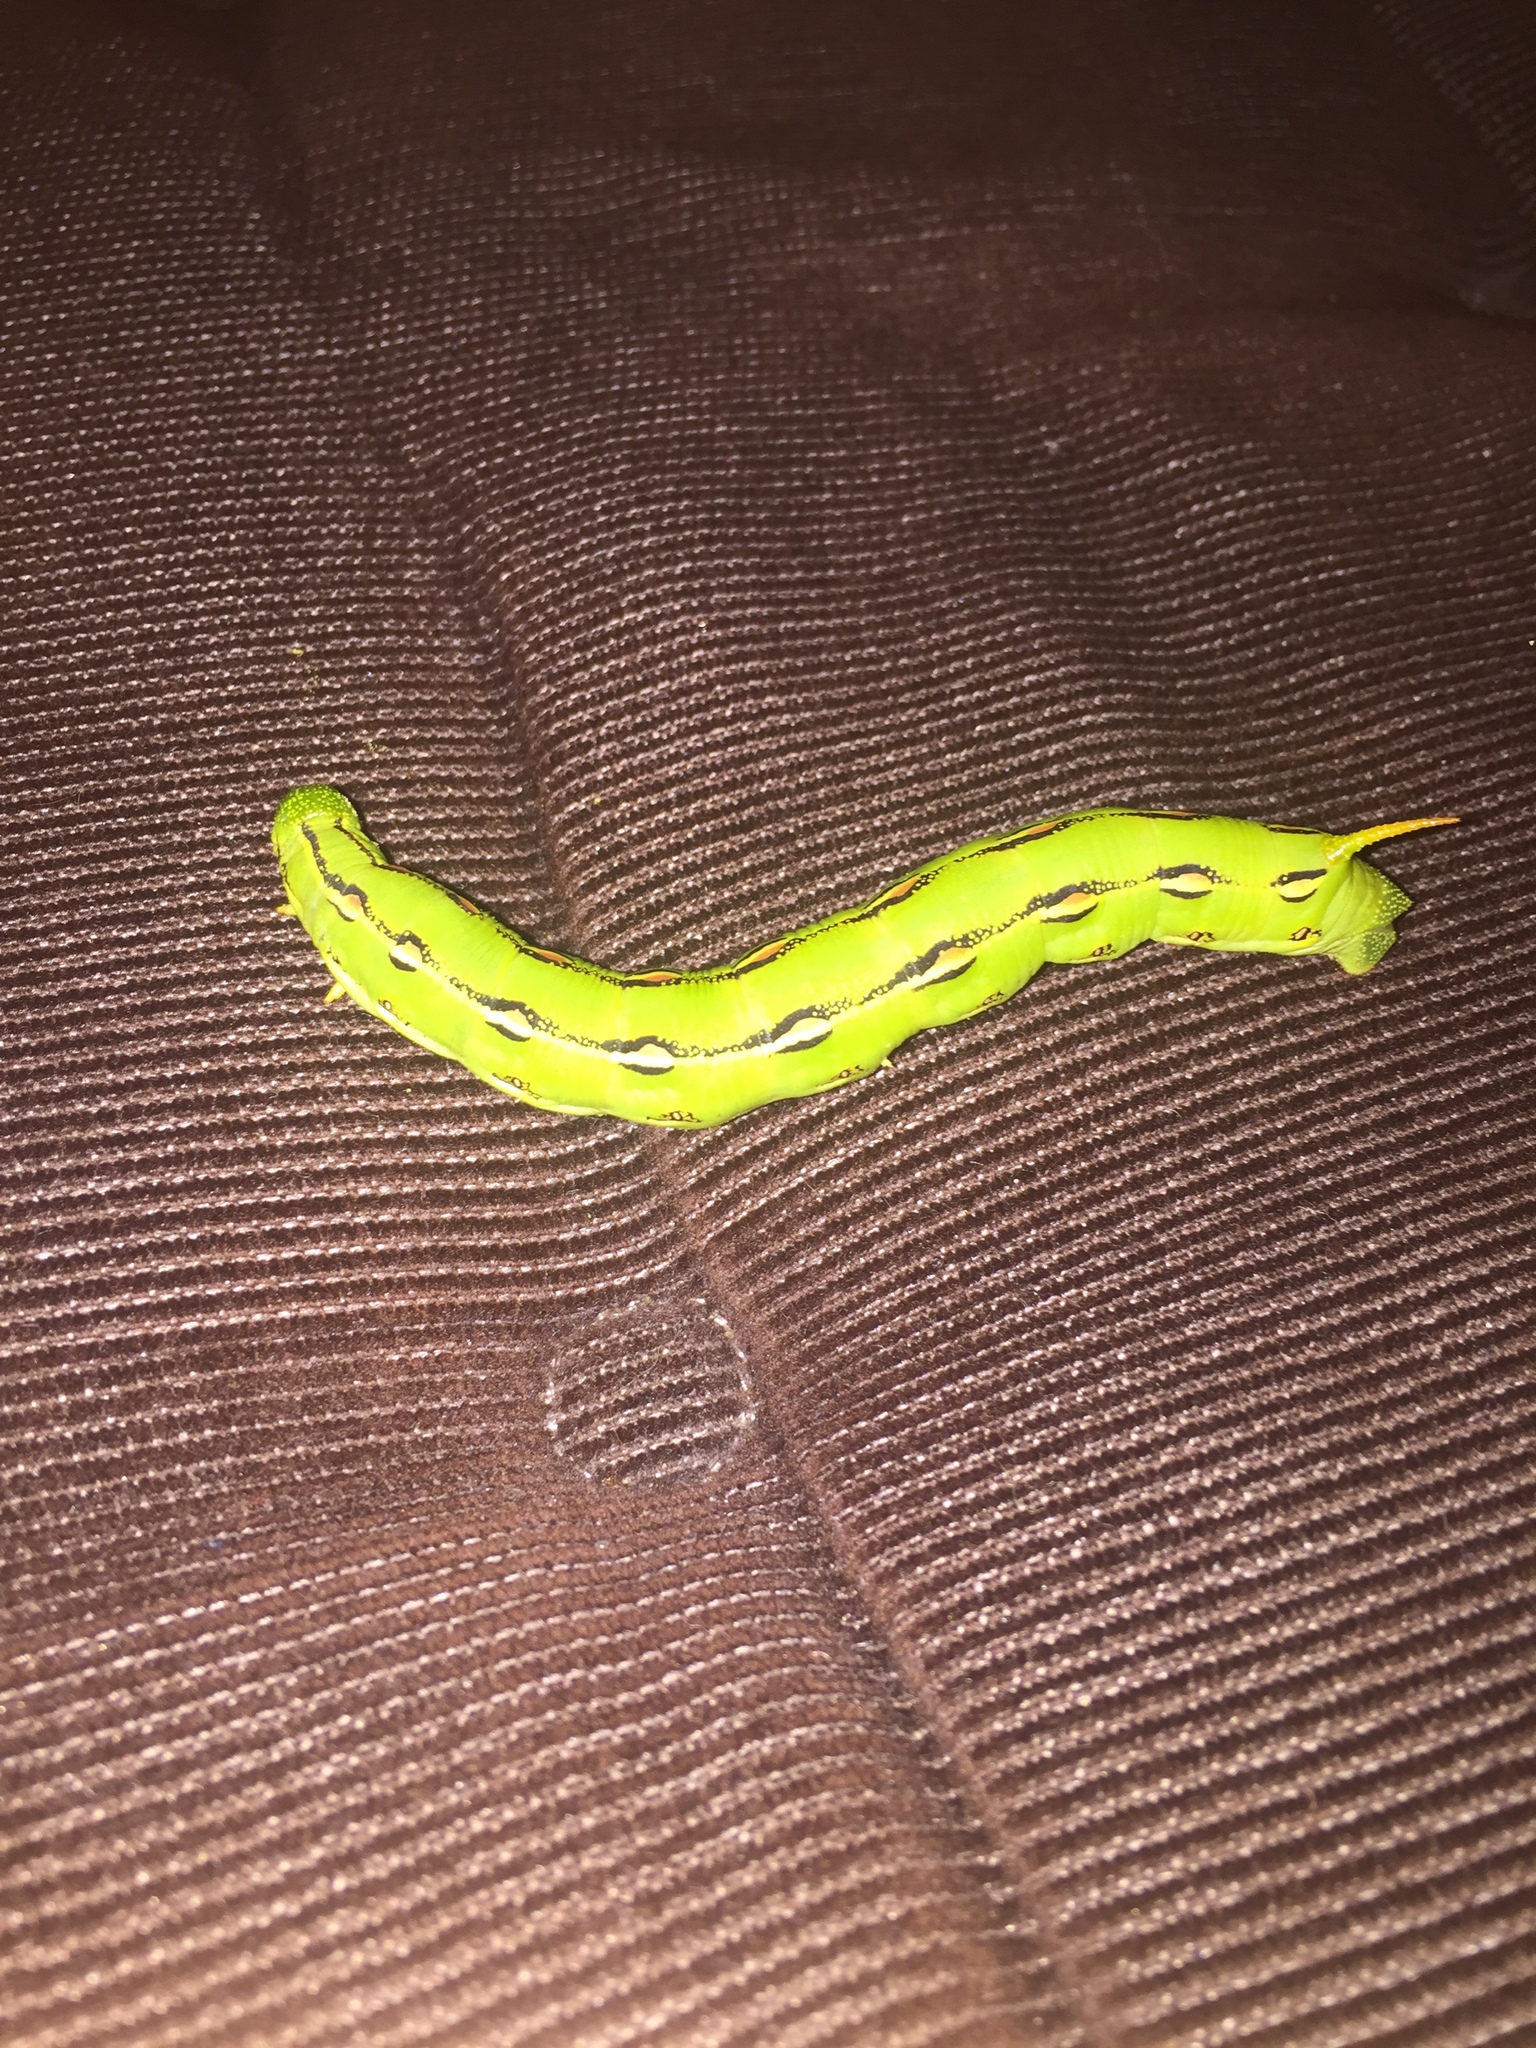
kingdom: Animalia
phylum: Arthropoda
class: Insecta
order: Lepidoptera
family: Sphingidae
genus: Hyles
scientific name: Hyles lineata
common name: White-lined sphinx
